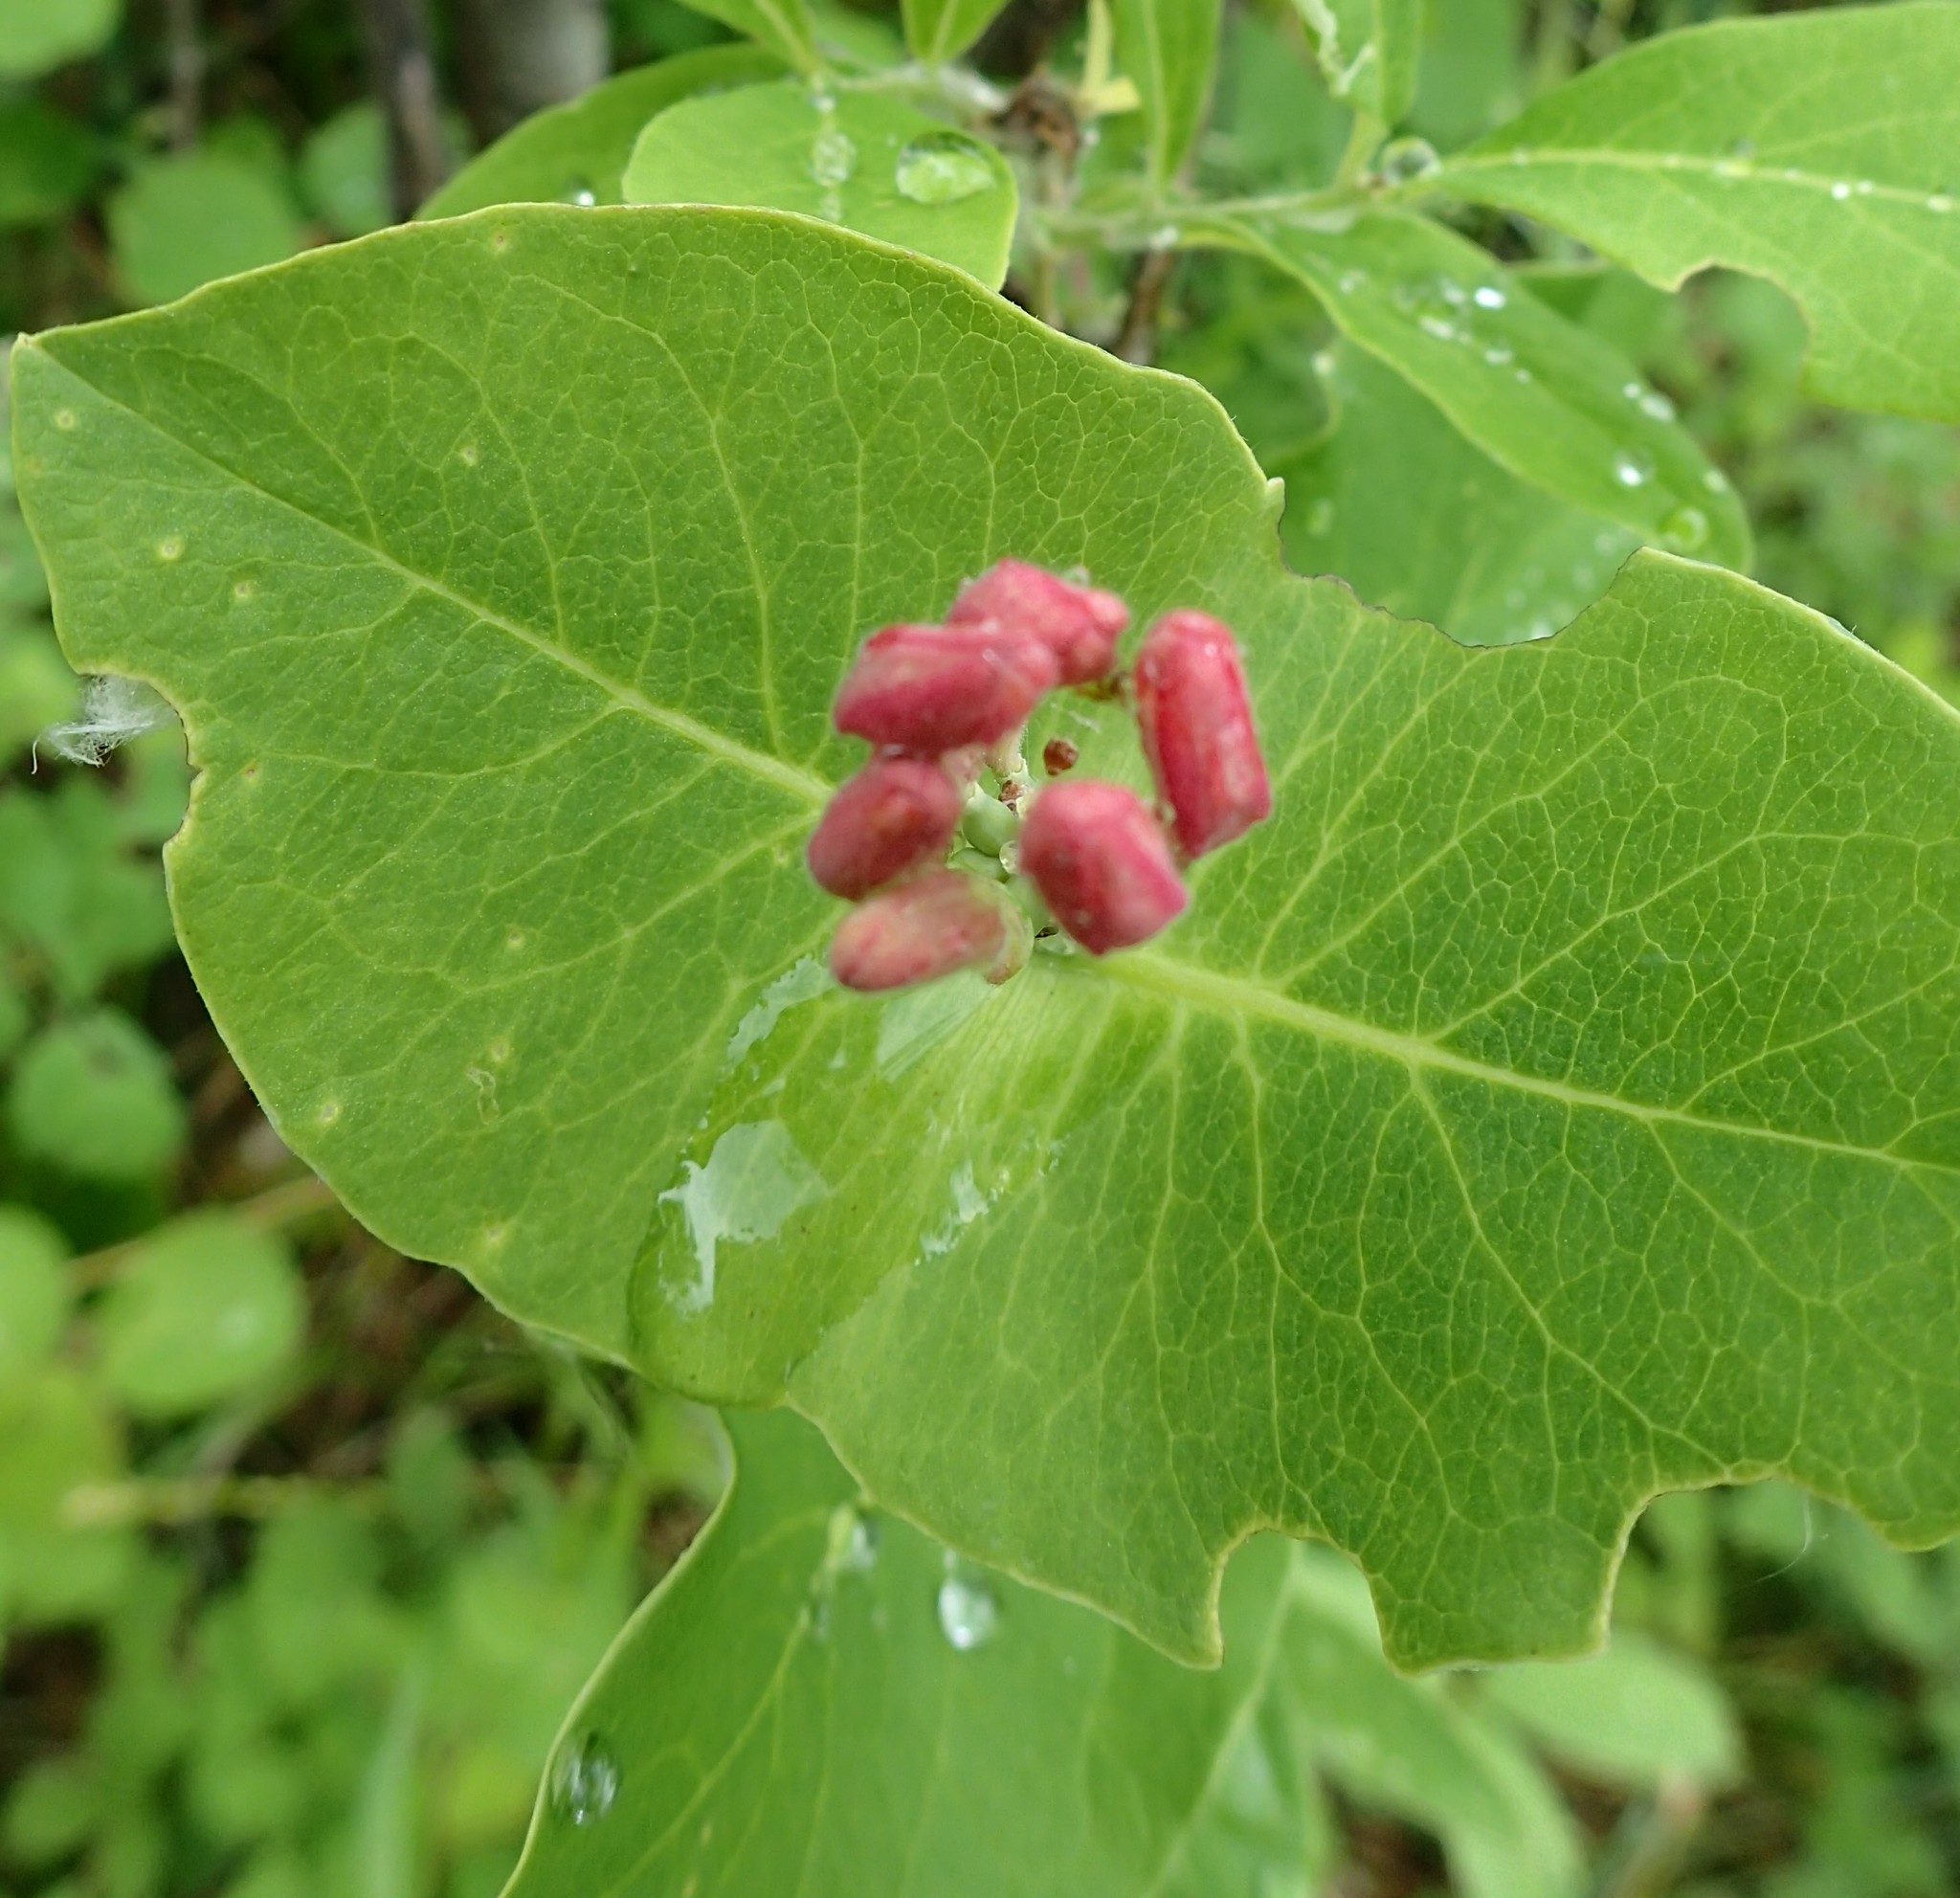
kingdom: Plantae
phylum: Tracheophyta
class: Magnoliopsida
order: Dipsacales
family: Caprifoliaceae
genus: Lonicera
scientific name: Lonicera dioica
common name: Limber honeysuckle
